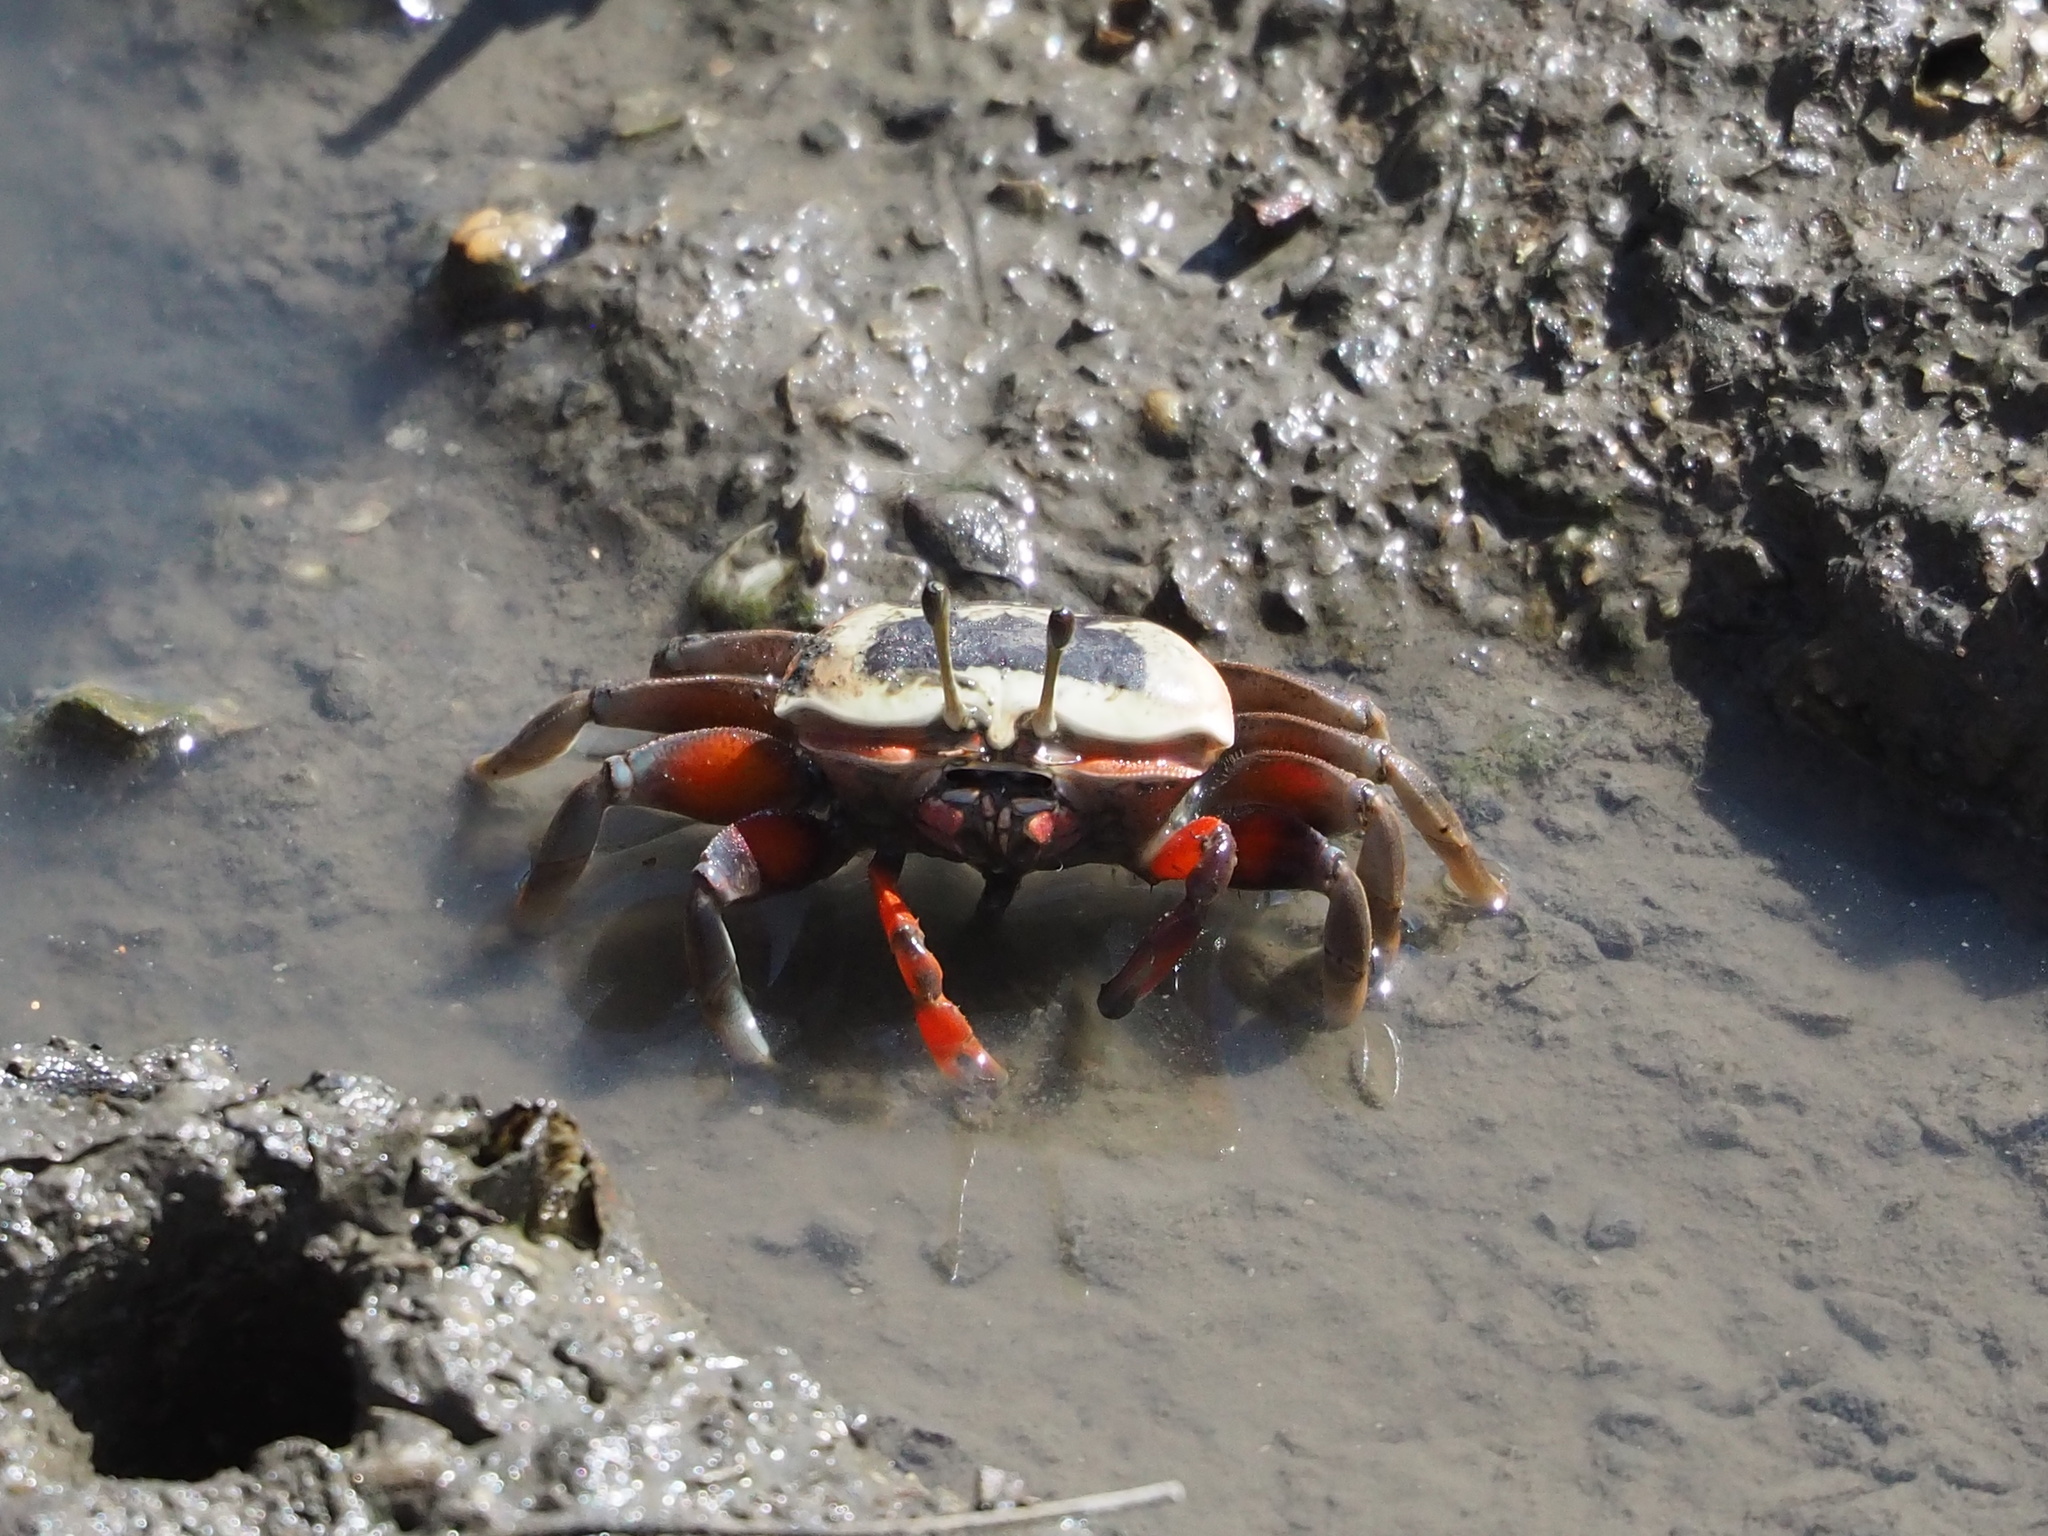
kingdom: Animalia
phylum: Arthropoda
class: Malacostraca
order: Decapoda
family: Ocypodidae
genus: Tubuca
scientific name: Tubuca arcuata
